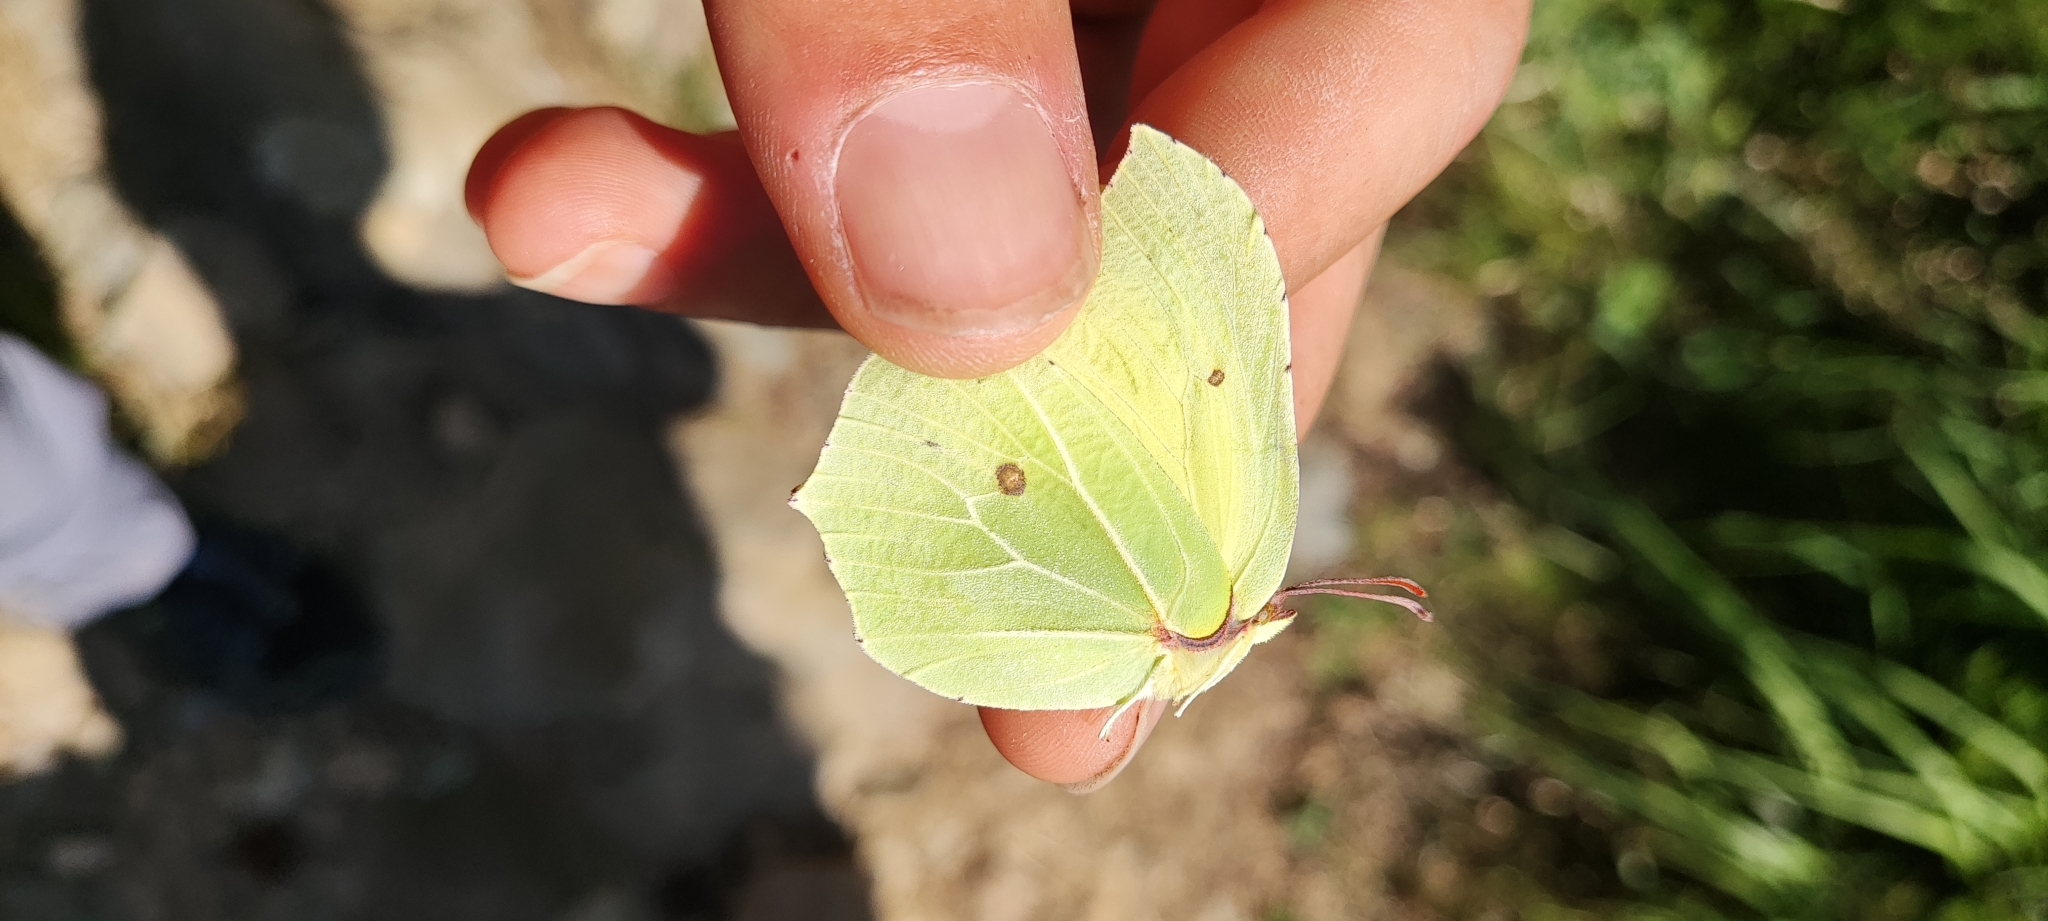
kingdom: Animalia
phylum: Arthropoda
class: Insecta
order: Lepidoptera
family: Pieridae
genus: Gonepteryx
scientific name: Gonepteryx rhamni
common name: Brimstone
